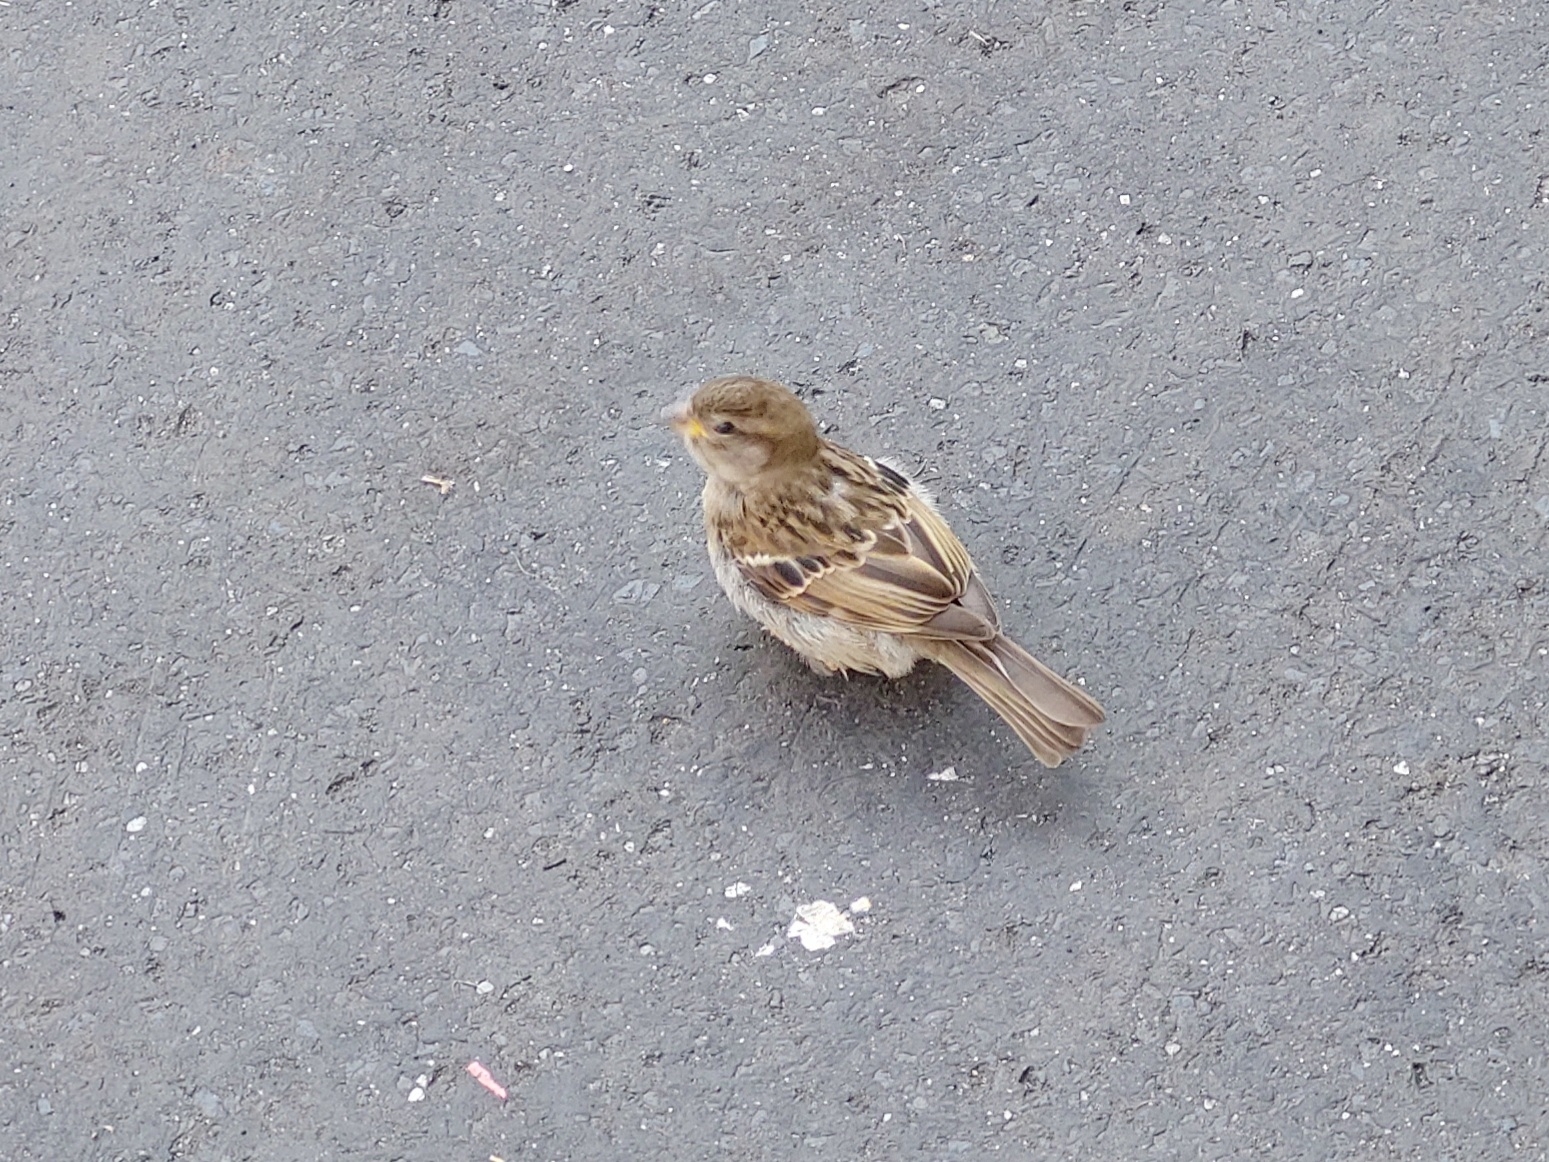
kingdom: Animalia
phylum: Chordata
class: Aves
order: Passeriformes
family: Passeridae
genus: Passer
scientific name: Passer domesticus
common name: House sparrow
